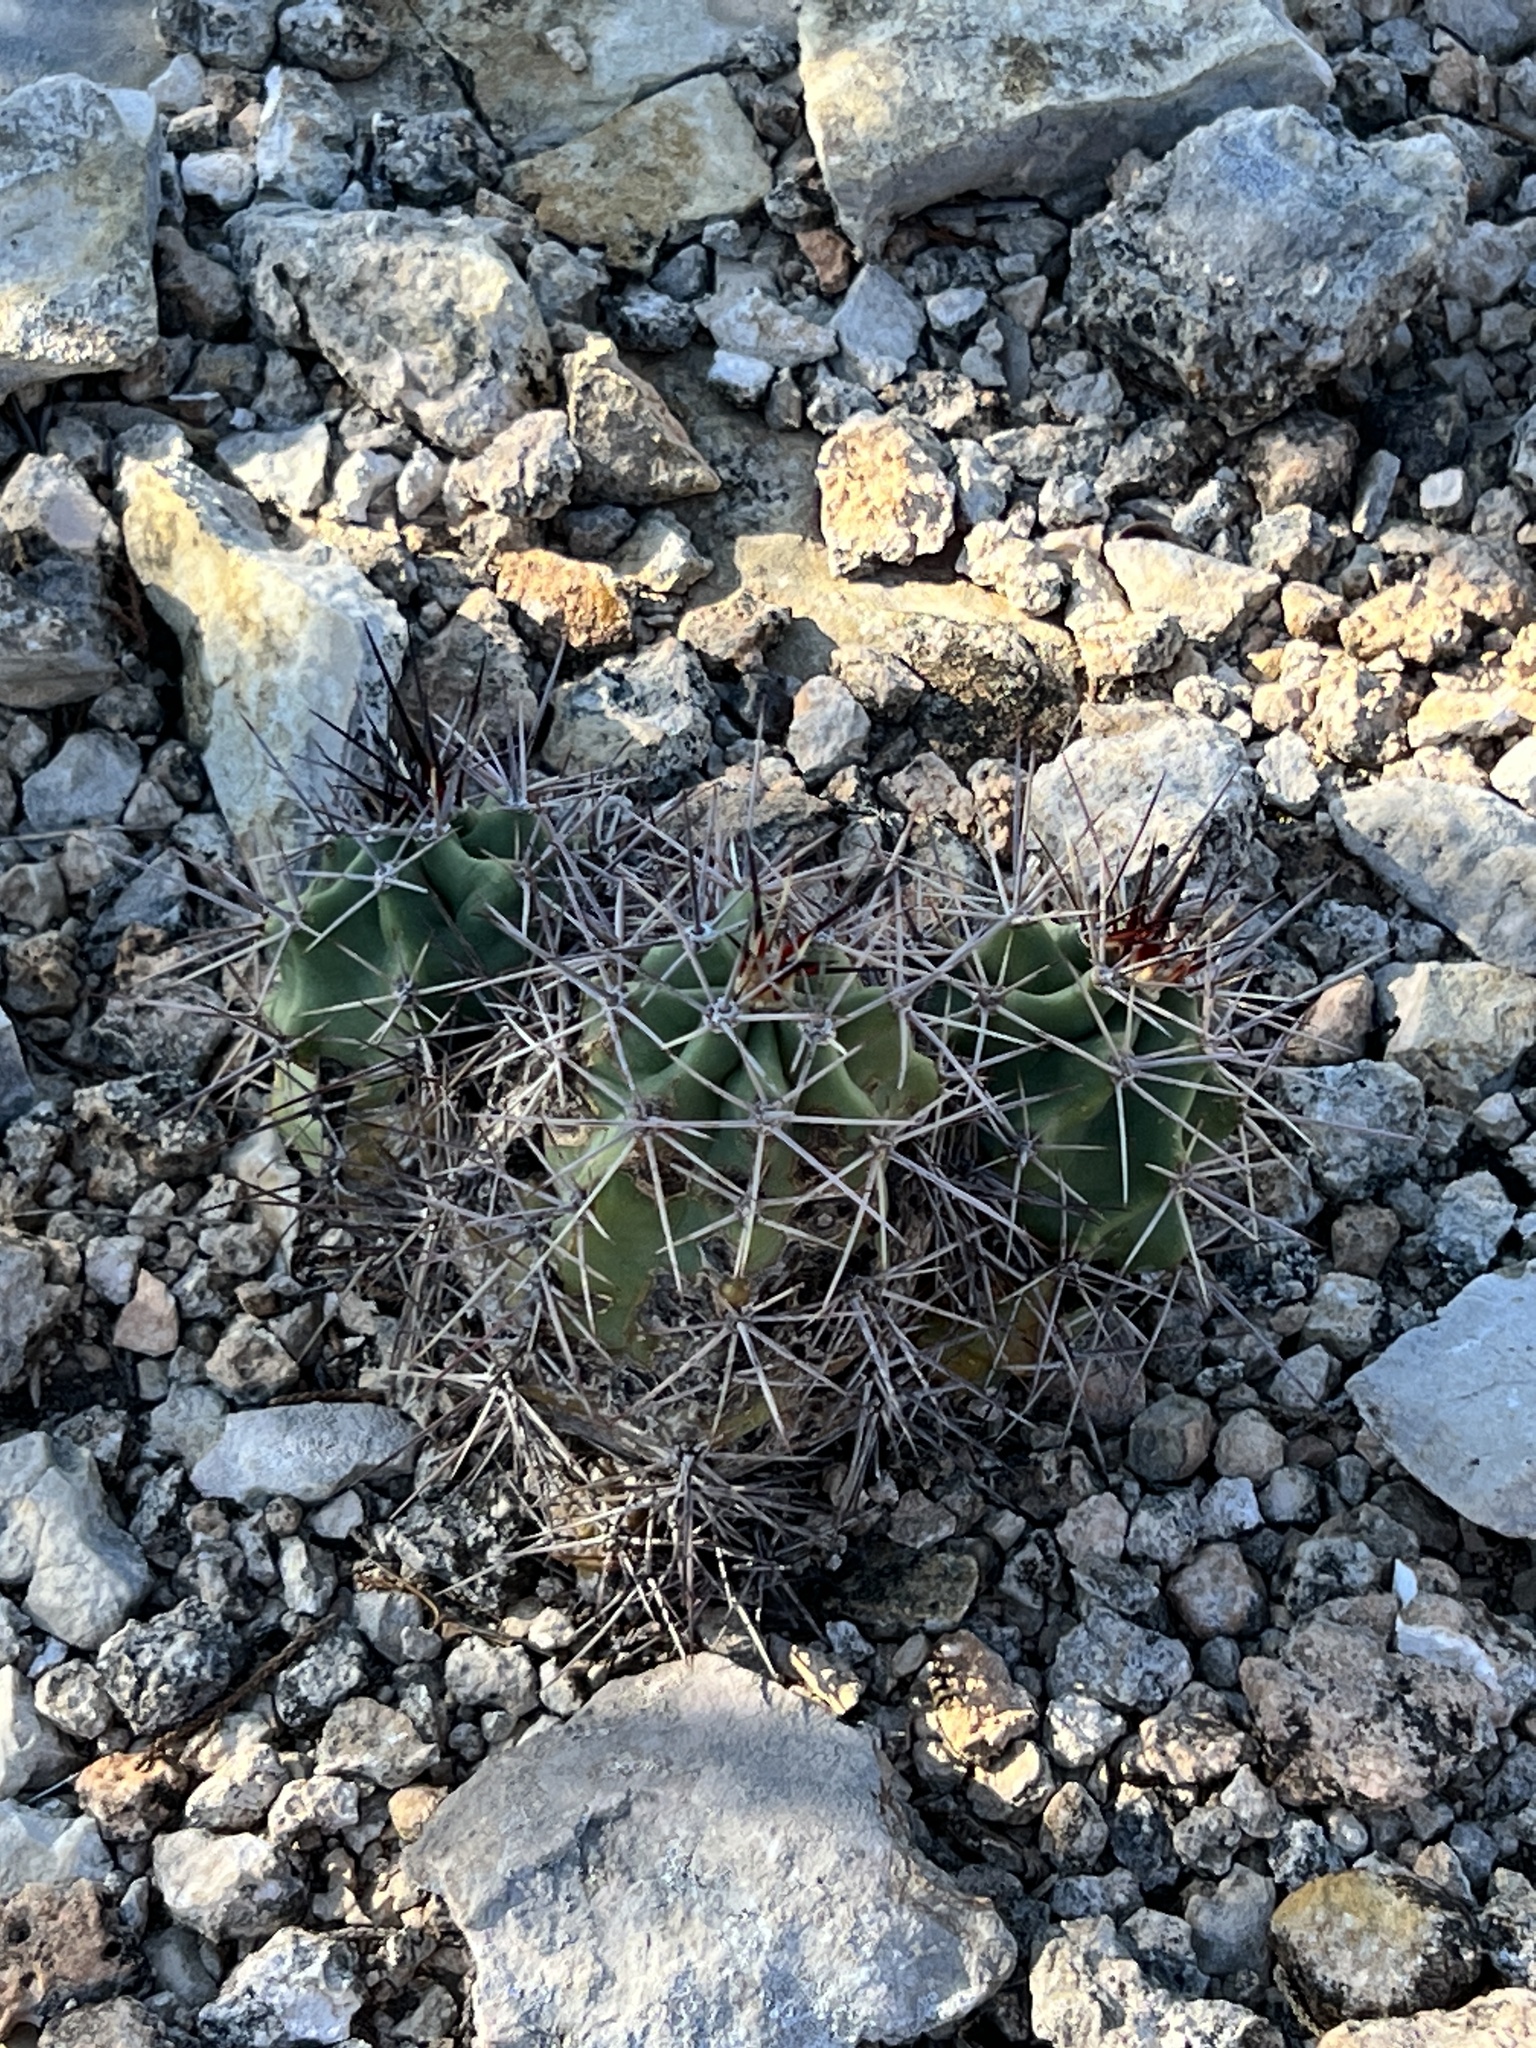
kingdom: Plantae
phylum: Tracheophyta
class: Magnoliopsida
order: Caryophyllales
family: Cactaceae
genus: Echinocereus
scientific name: Echinocereus coccineus
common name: Scarlet hedgehog cactus
